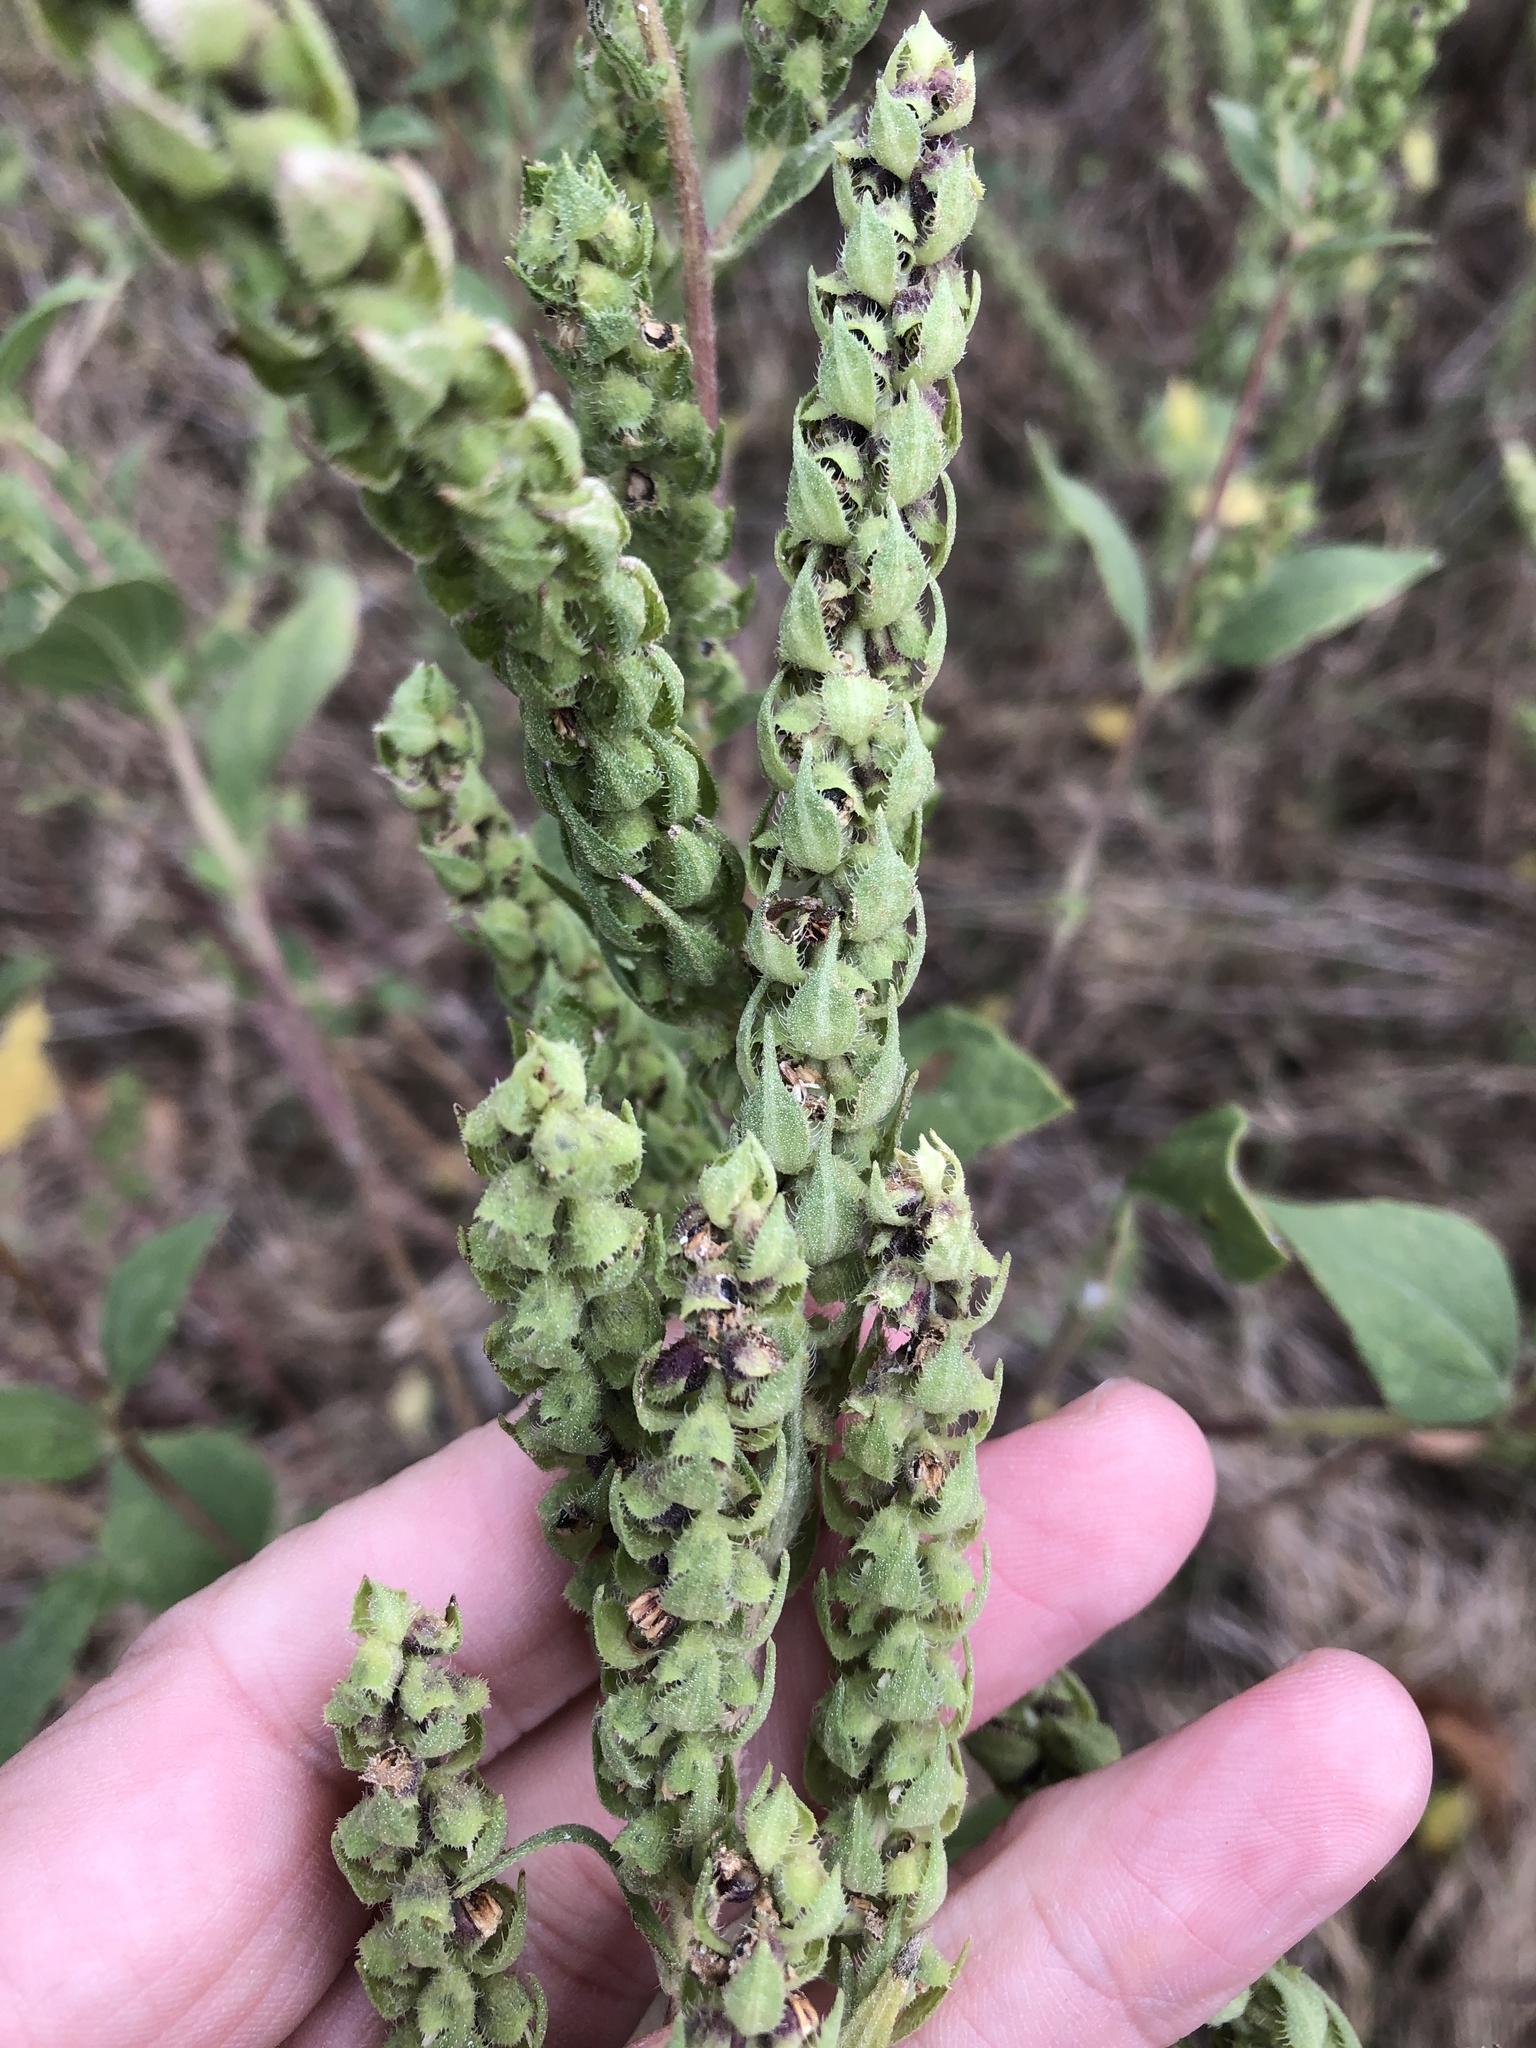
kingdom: Plantae
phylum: Tracheophyta
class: Magnoliopsida
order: Asterales
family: Asteraceae
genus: Iva
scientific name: Iva annua
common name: Marsh-elder
